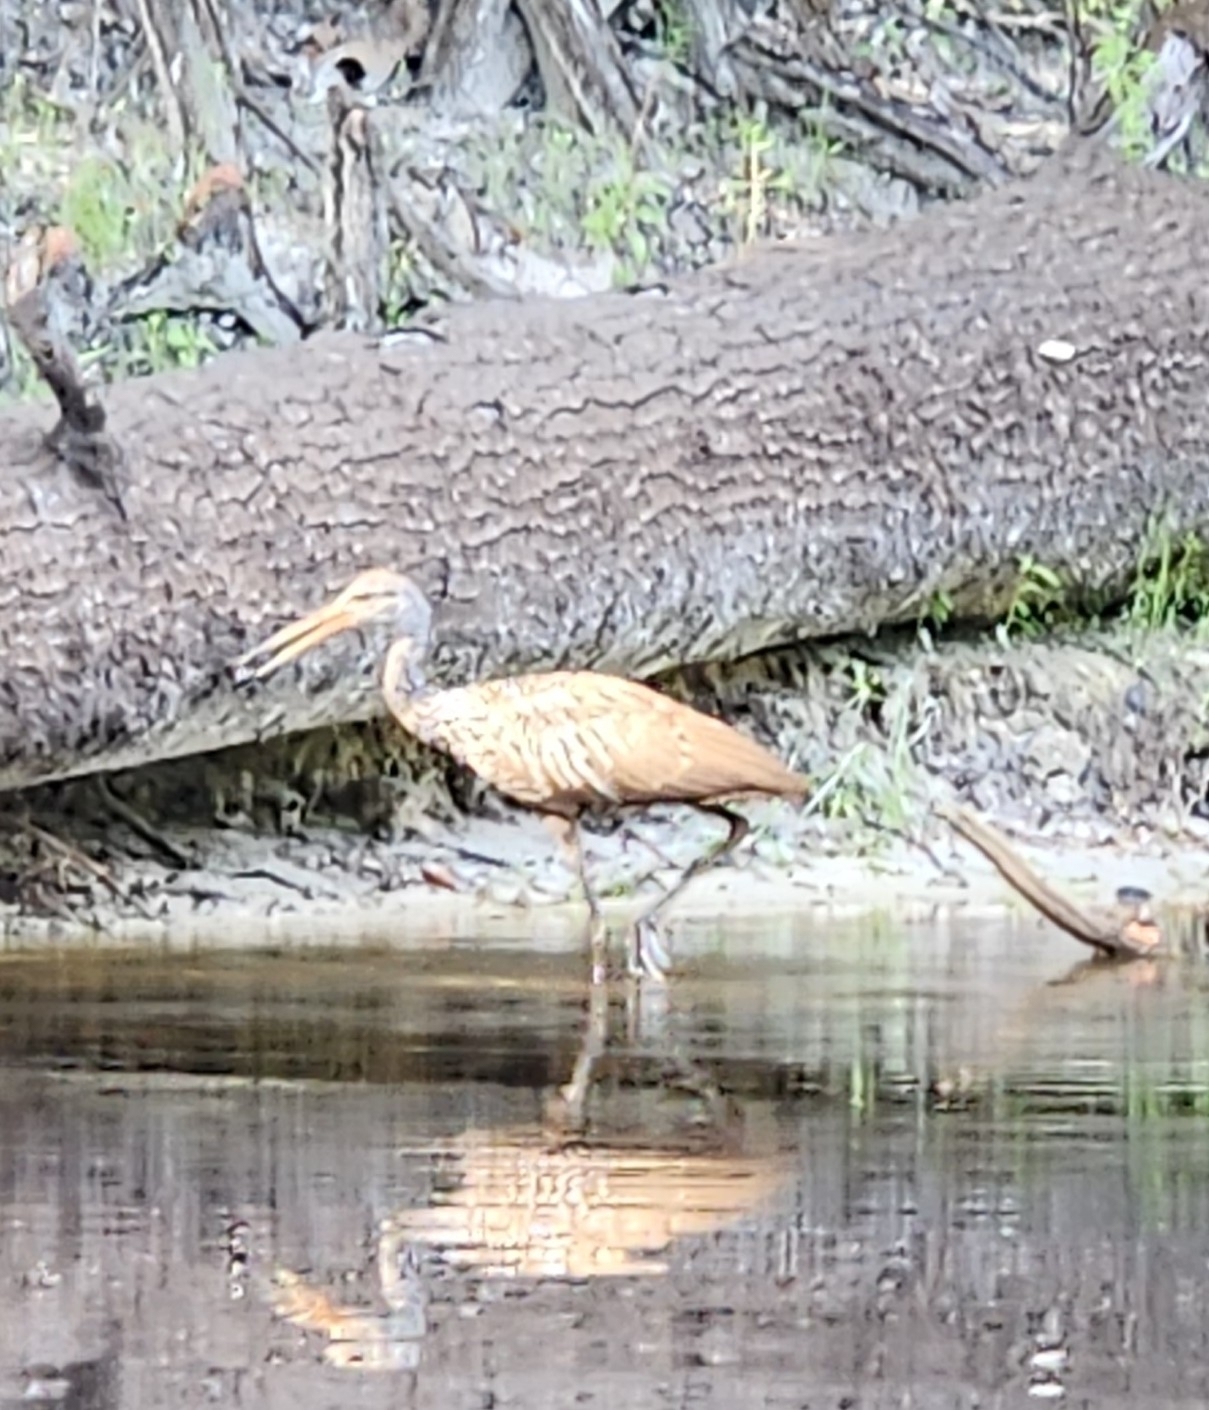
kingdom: Animalia
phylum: Chordata
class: Aves
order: Gruiformes
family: Aramidae
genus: Aramus
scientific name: Aramus guarauna
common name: Limpkin
